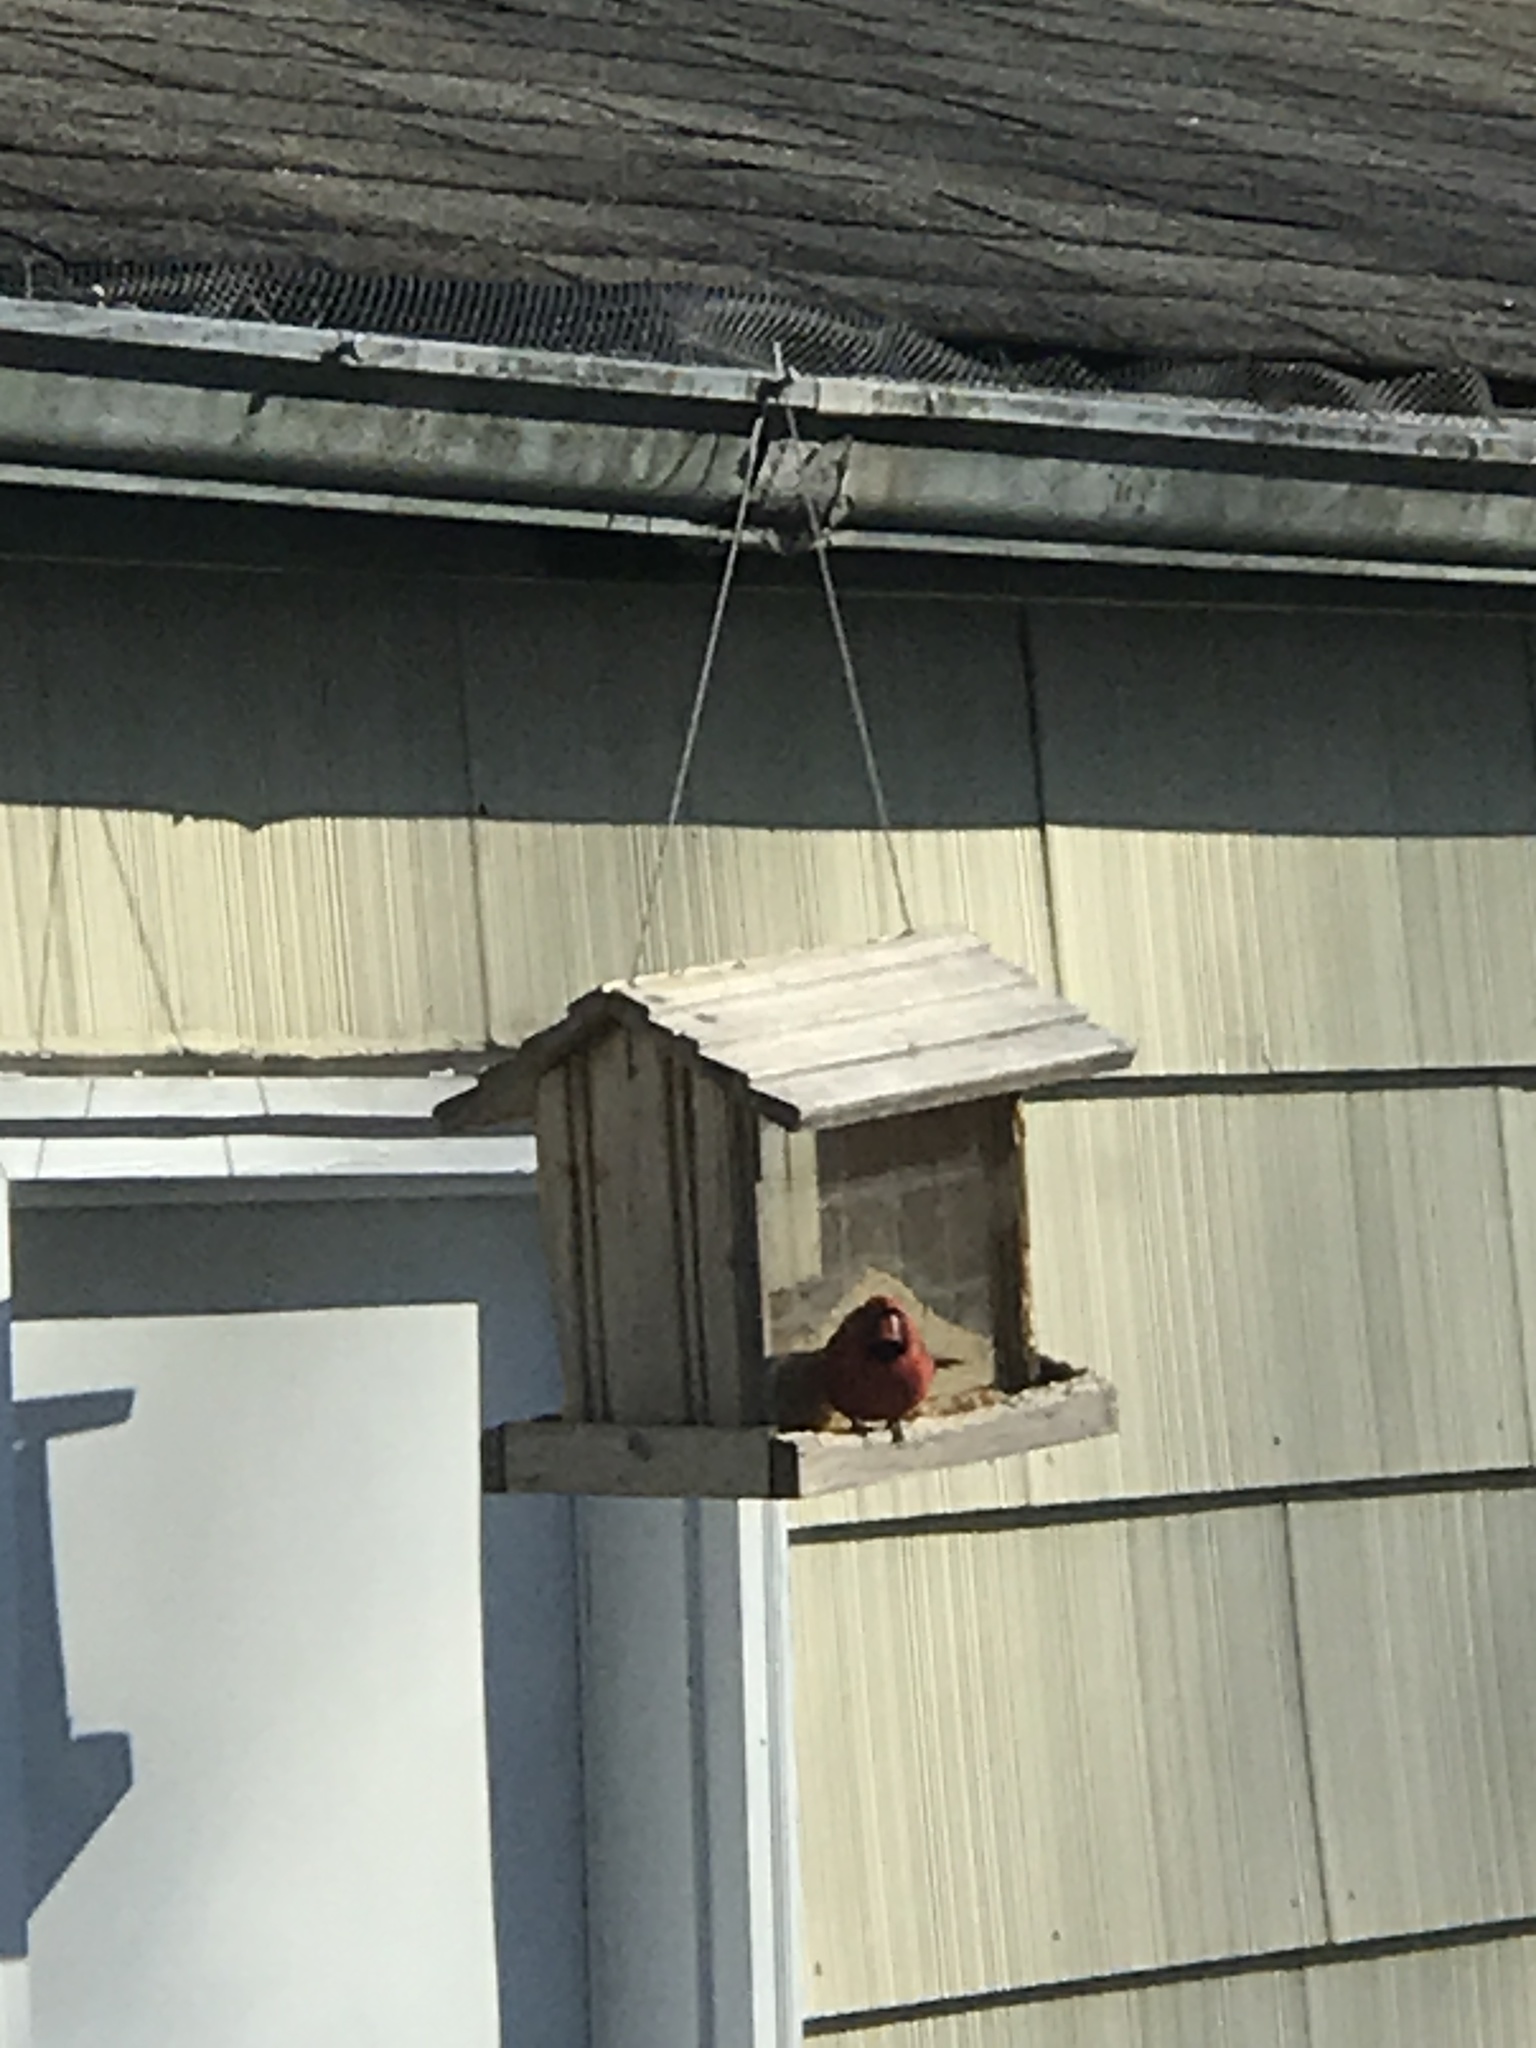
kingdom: Animalia
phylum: Chordata
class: Aves
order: Passeriformes
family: Cardinalidae
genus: Cardinalis
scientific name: Cardinalis cardinalis
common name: Northern cardinal
